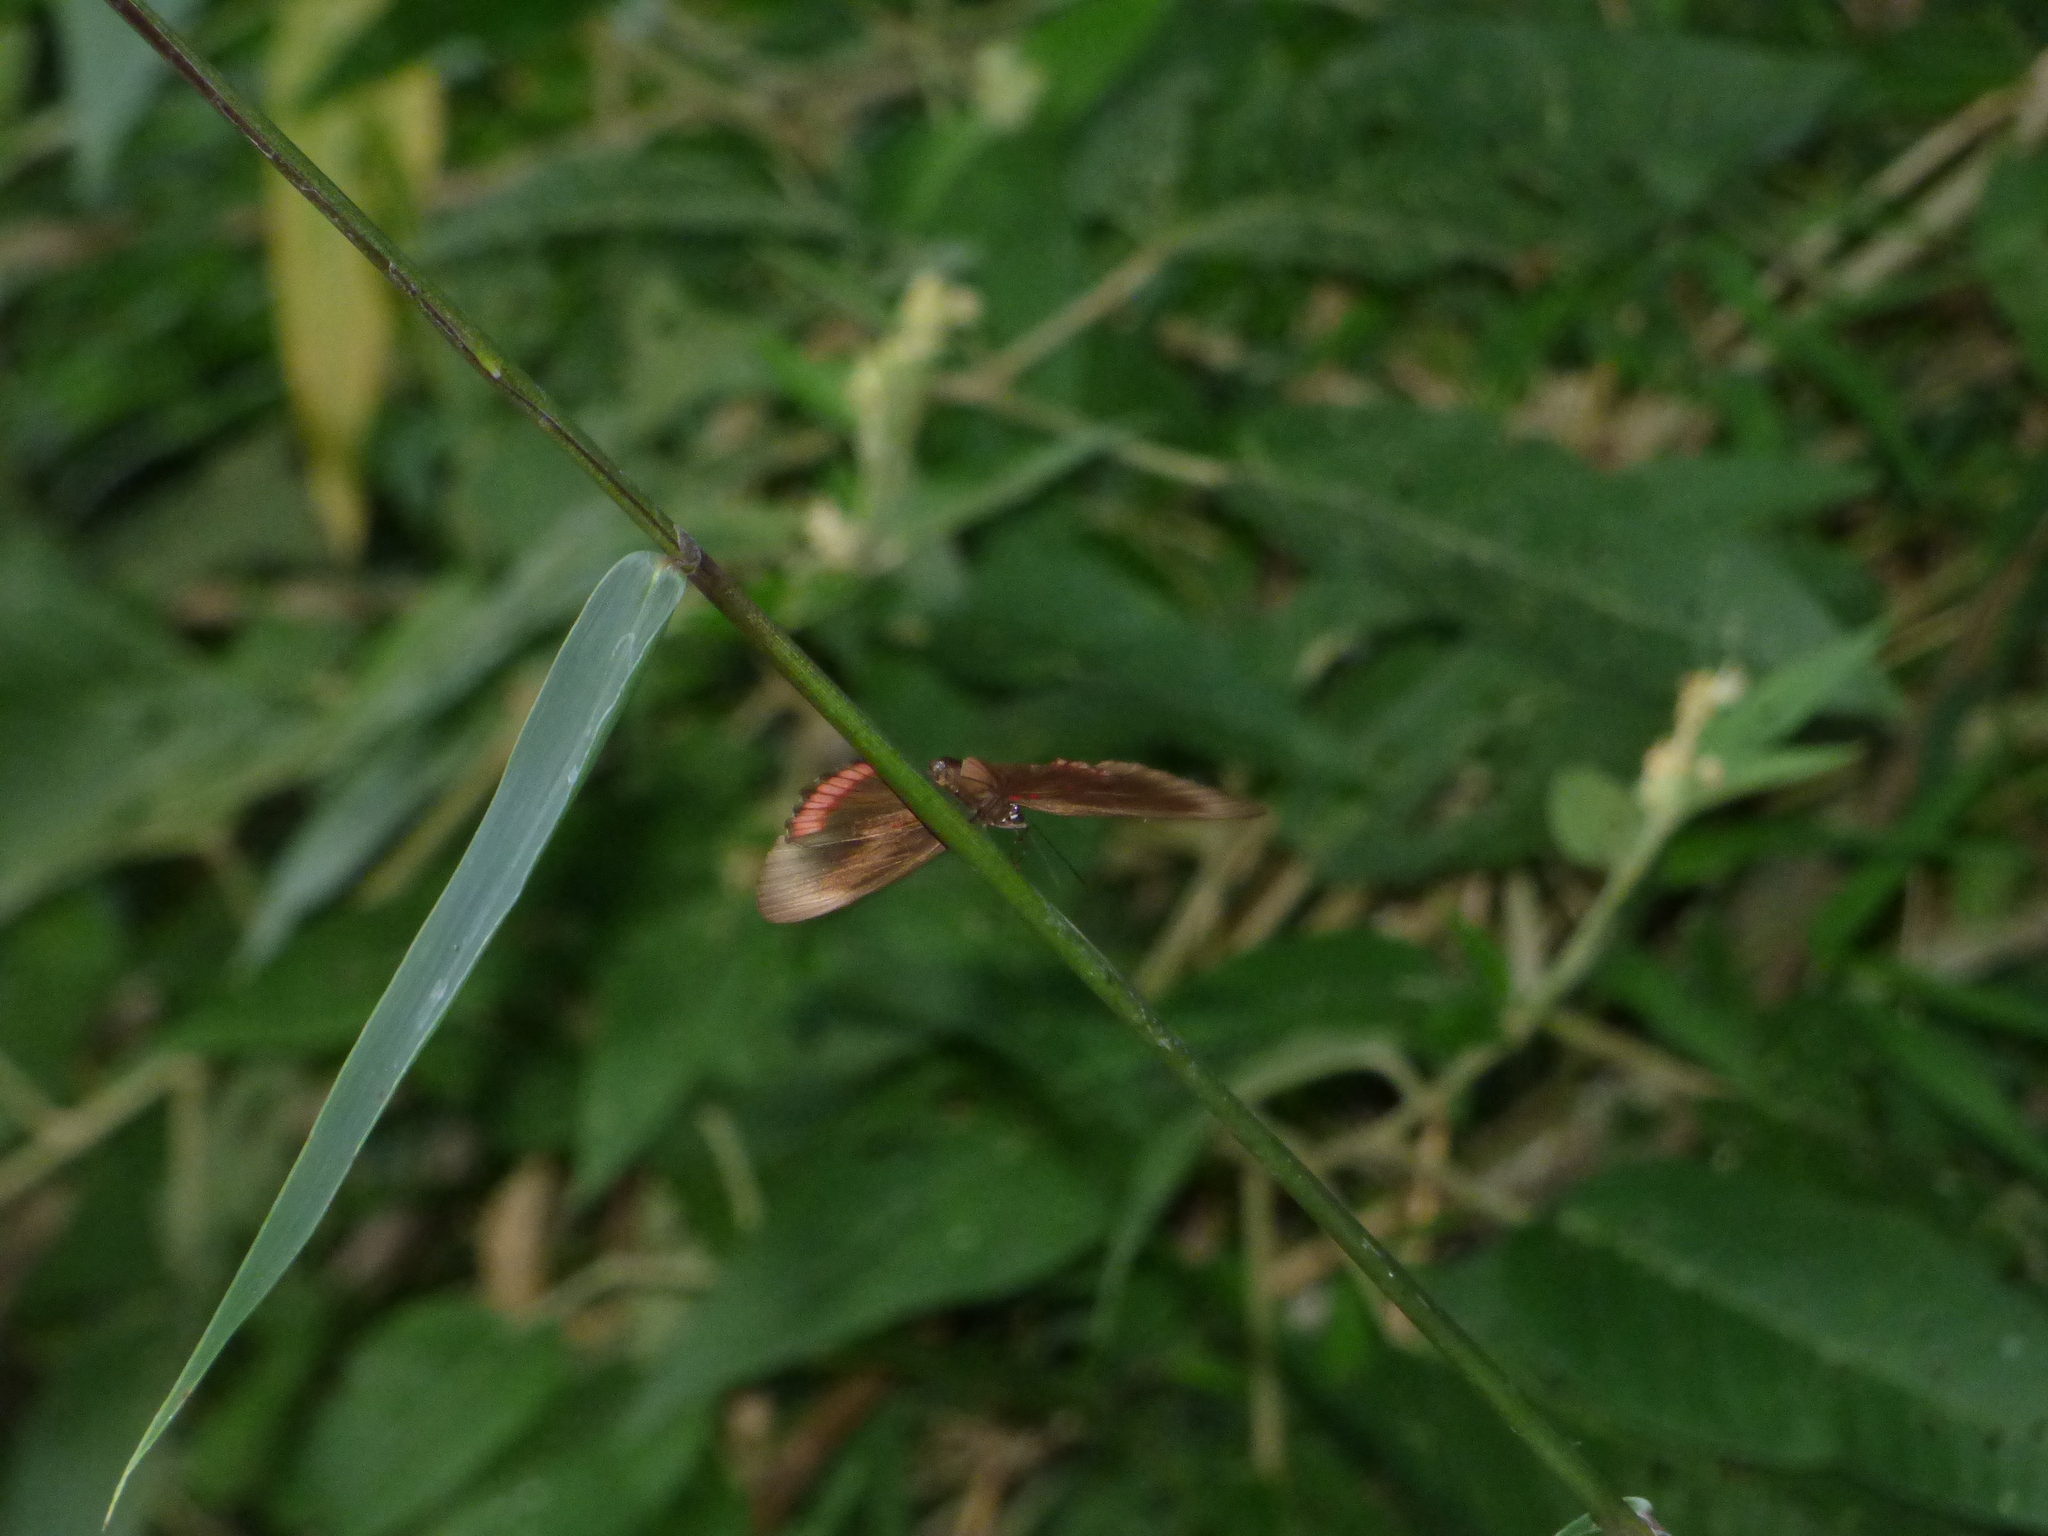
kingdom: Animalia
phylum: Arthropoda
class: Insecta
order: Lepidoptera
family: Sesiidae
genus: Sesia
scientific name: Sesia Biblis hyperia
